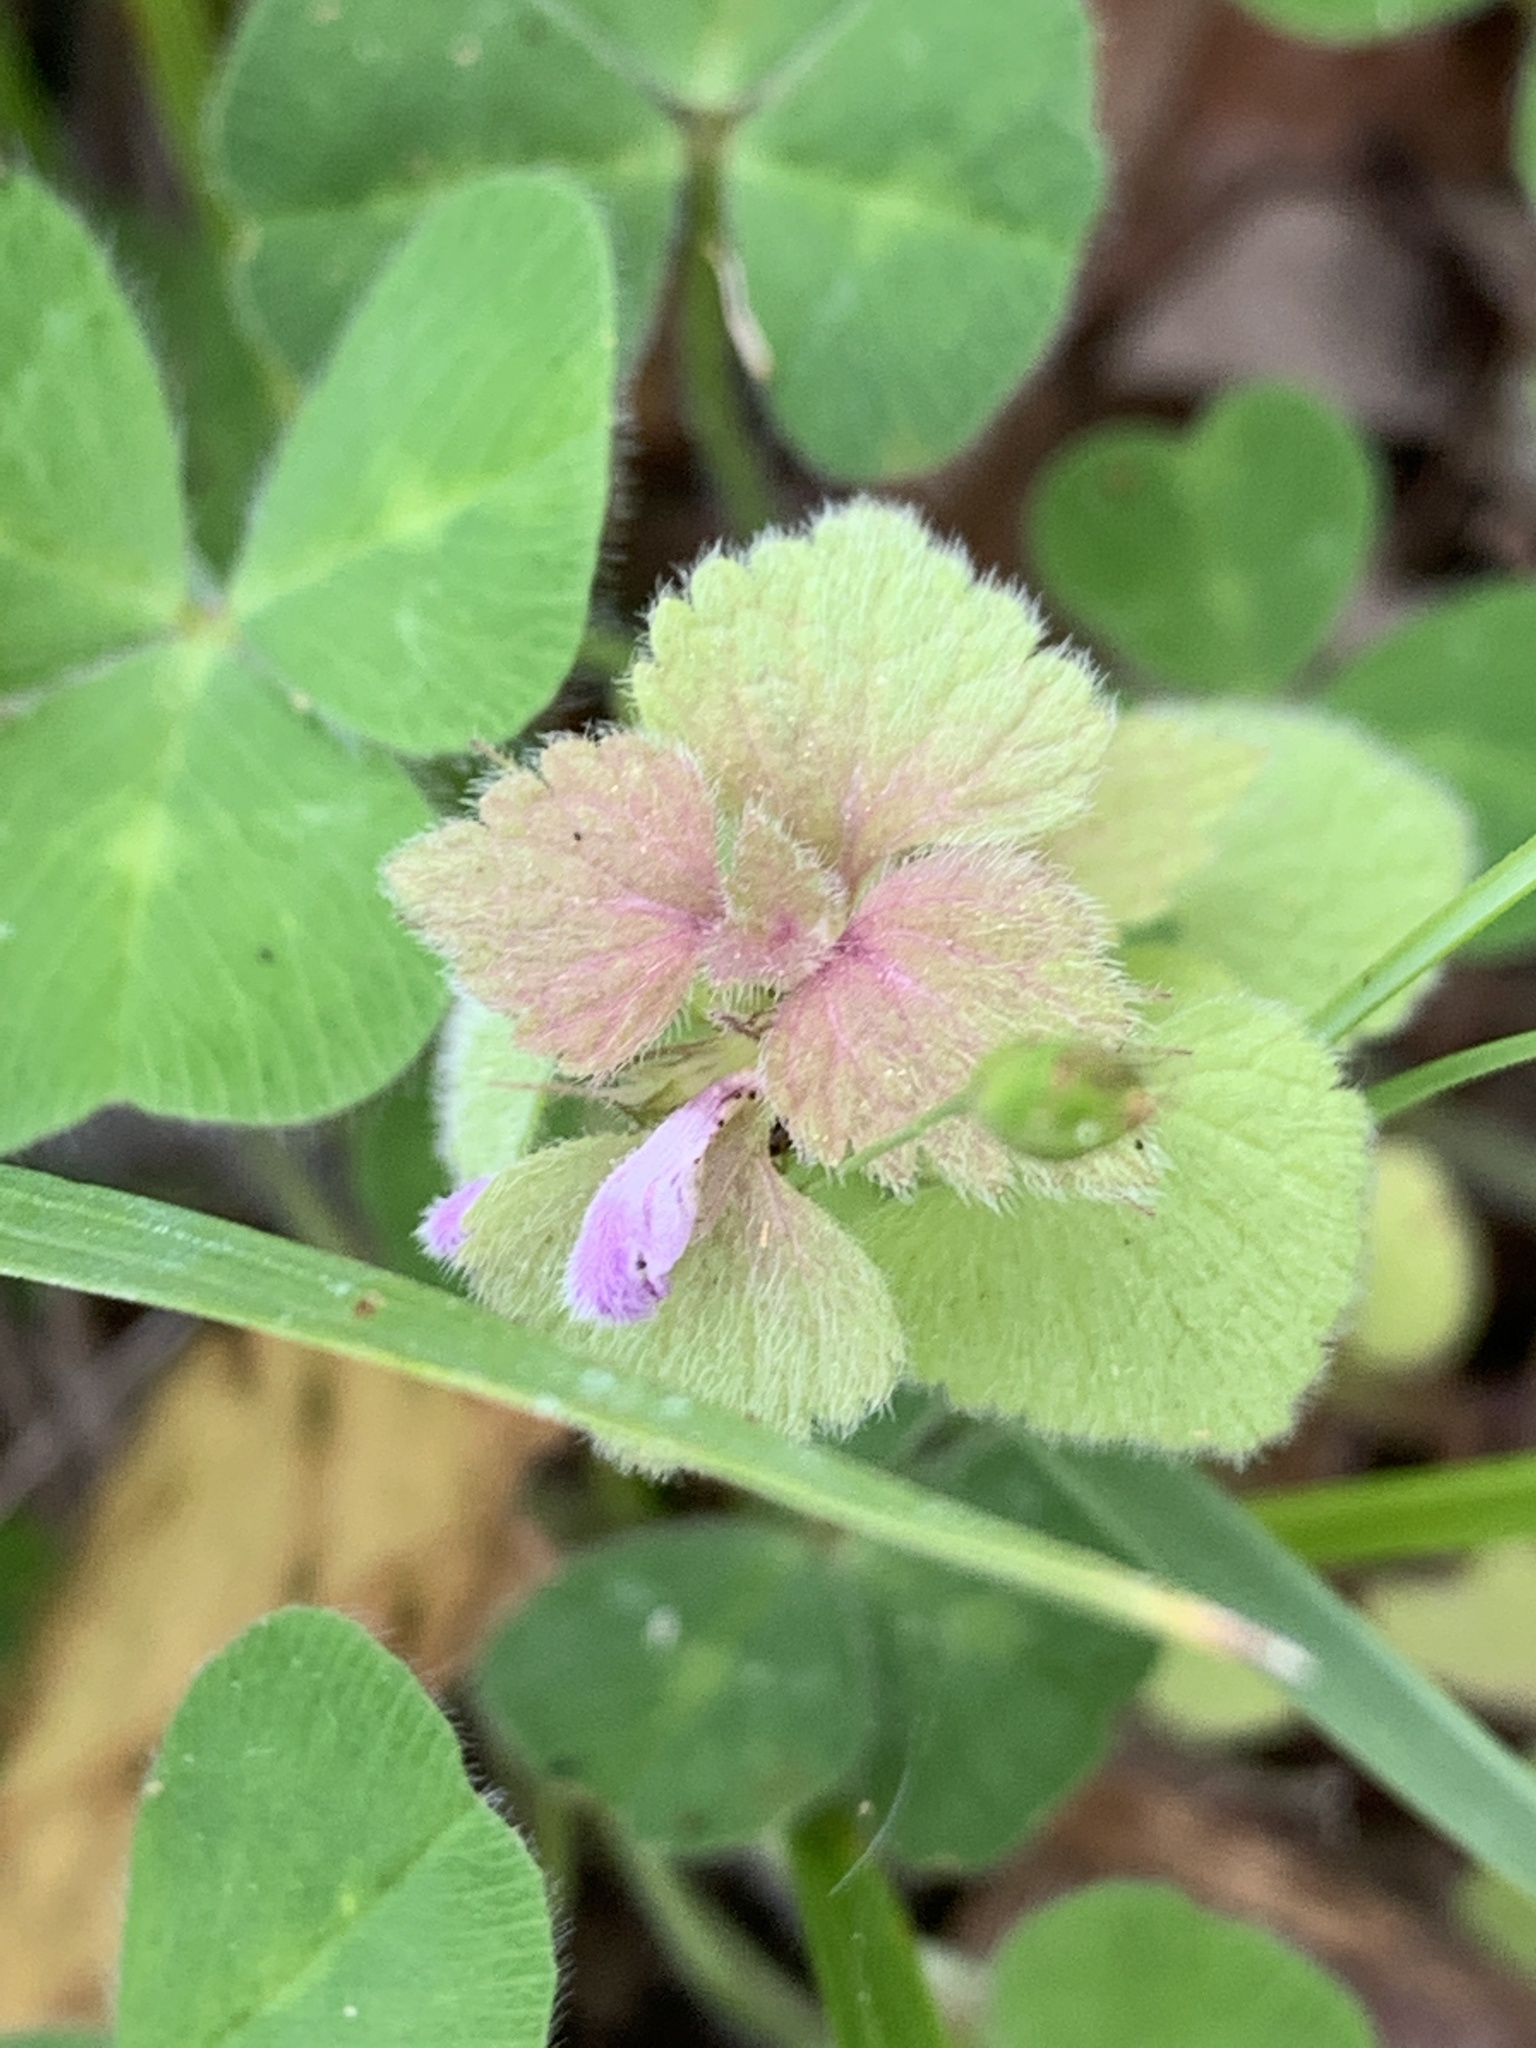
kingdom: Plantae
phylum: Tracheophyta
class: Magnoliopsida
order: Lamiales
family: Lamiaceae
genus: Lamium
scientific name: Lamium purpureum
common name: Red dead-nettle
